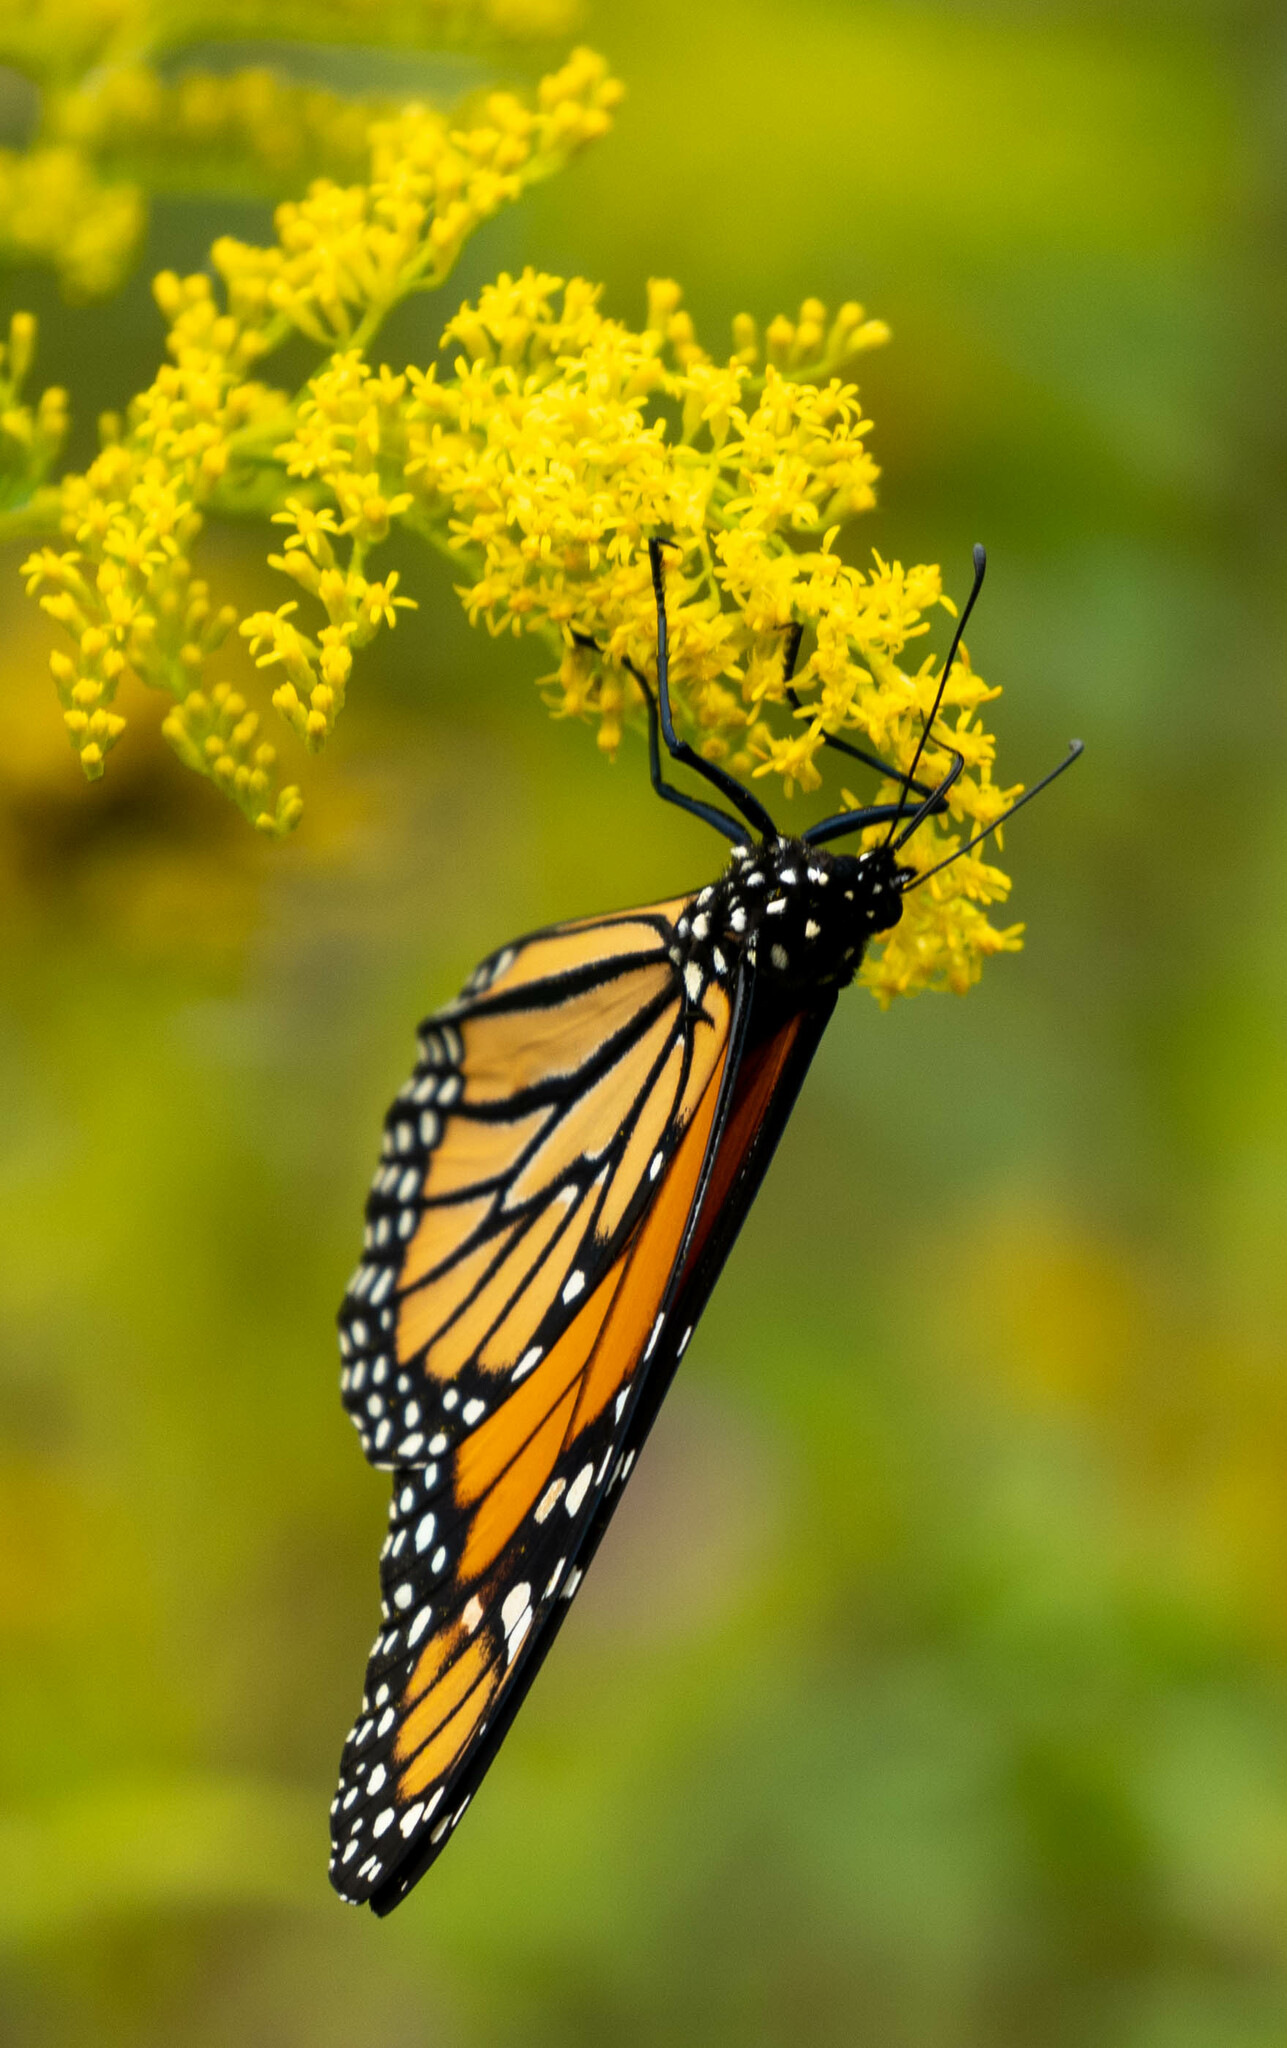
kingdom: Animalia
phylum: Arthropoda
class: Insecta
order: Lepidoptera
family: Nymphalidae
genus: Danaus
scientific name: Danaus plexippus
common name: Monarch
